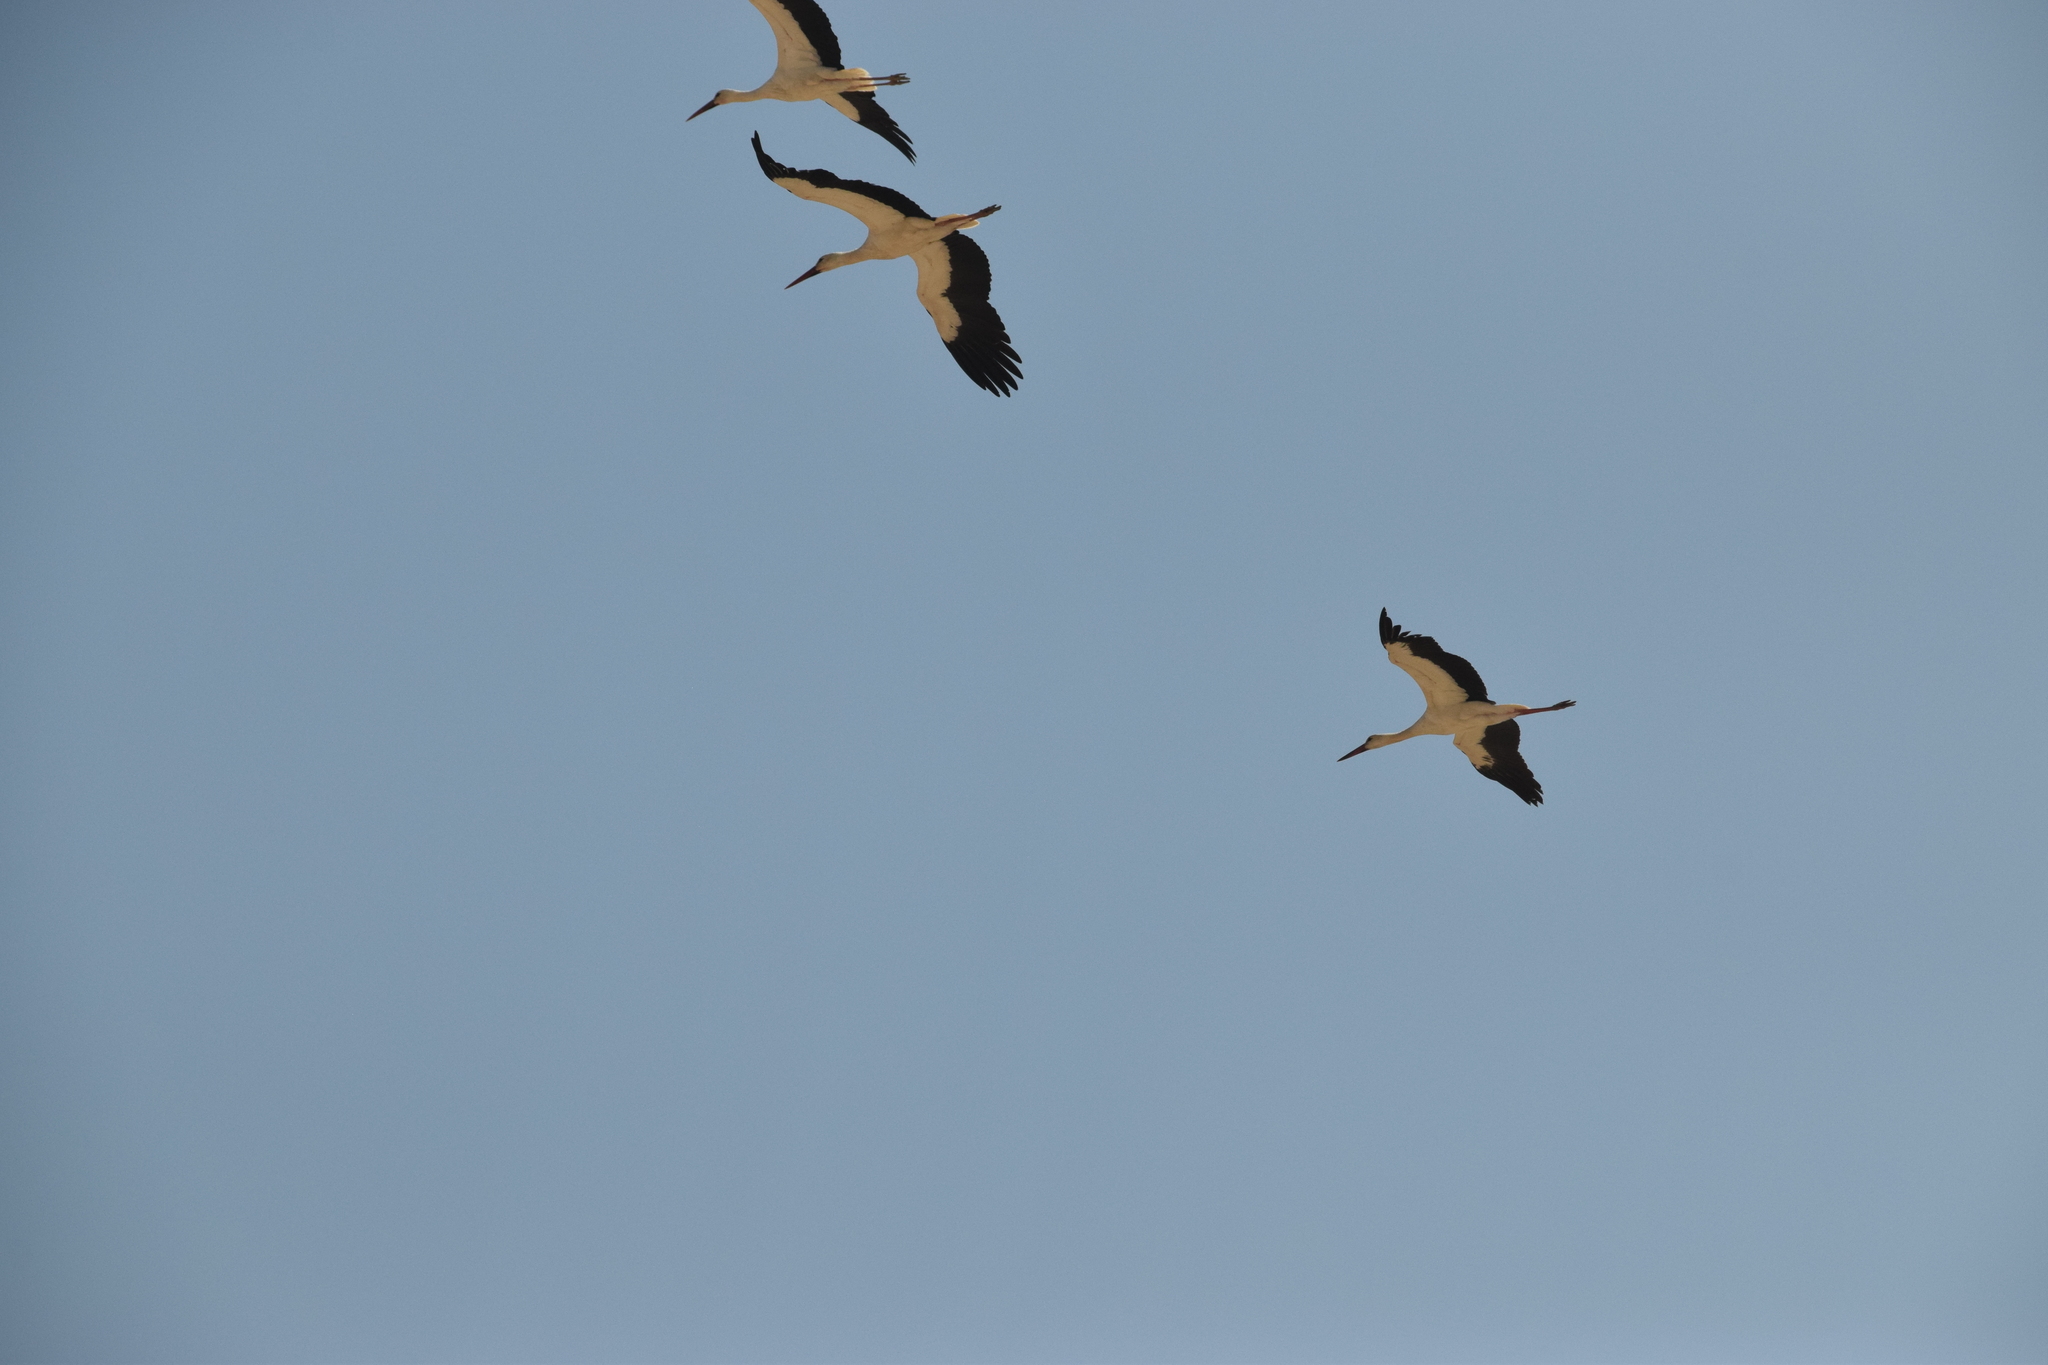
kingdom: Animalia
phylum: Chordata
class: Aves
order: Ciconiiformes
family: Ciconiidae
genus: Ciconia
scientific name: Ciconia ciconia
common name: White stork
